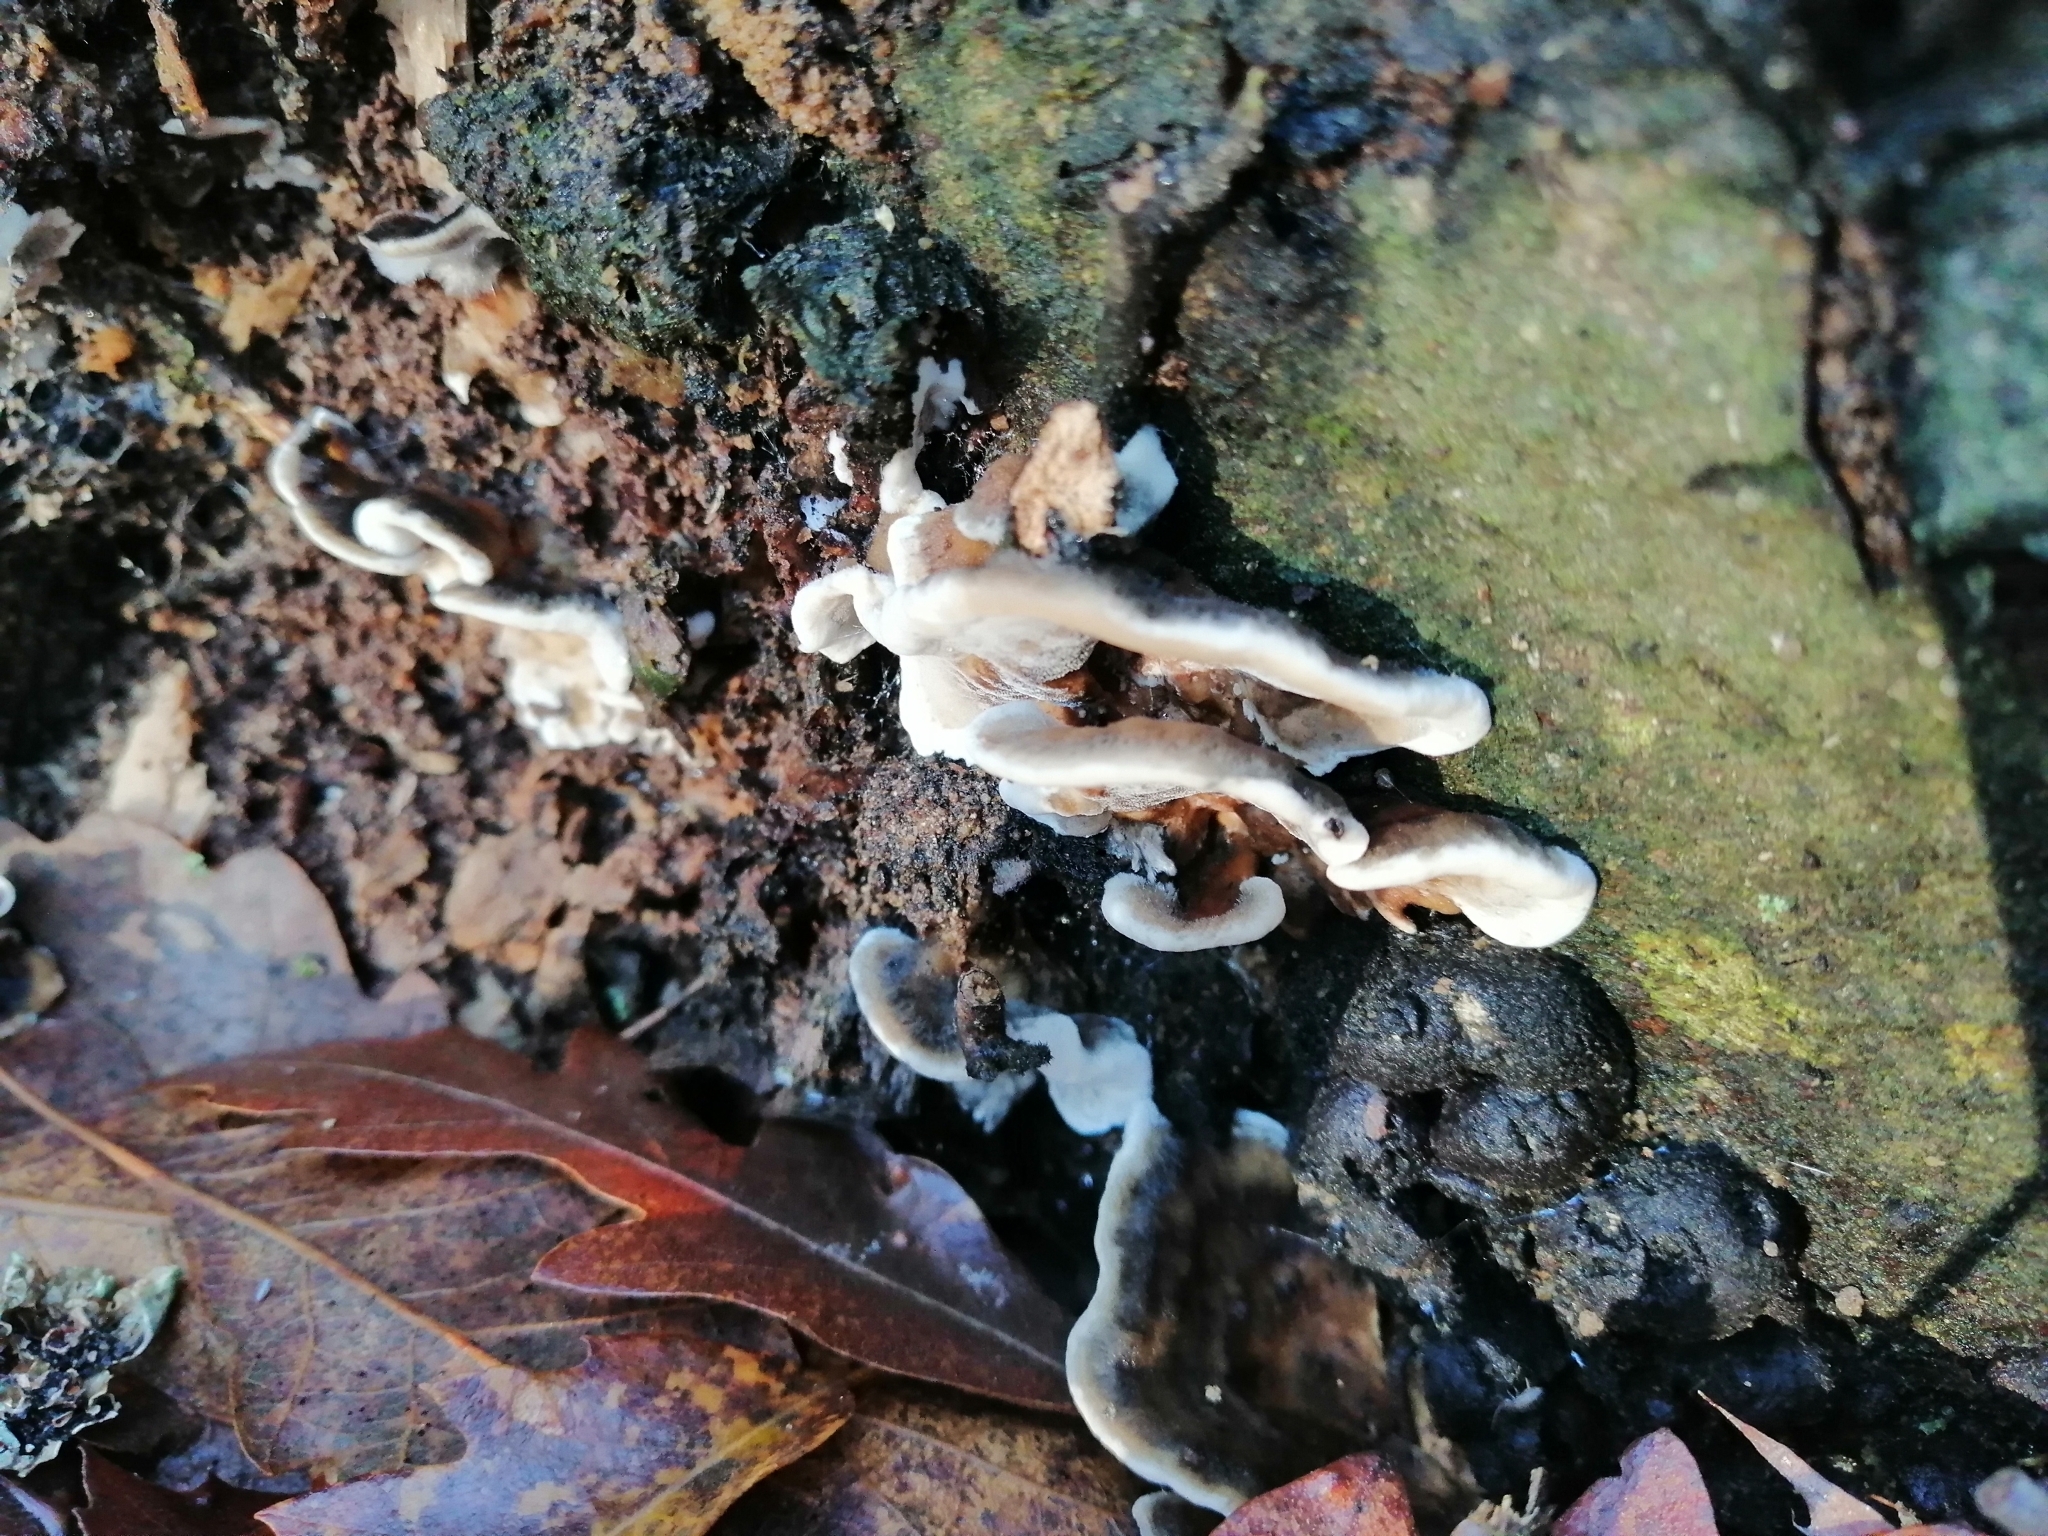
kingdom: Fungi
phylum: Basidiomycota
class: Agaricomycetes
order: Polyporales
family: Phanerochaetaceae
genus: Bjerkandera
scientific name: Bjerkandera adusta
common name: Smoky bracket
